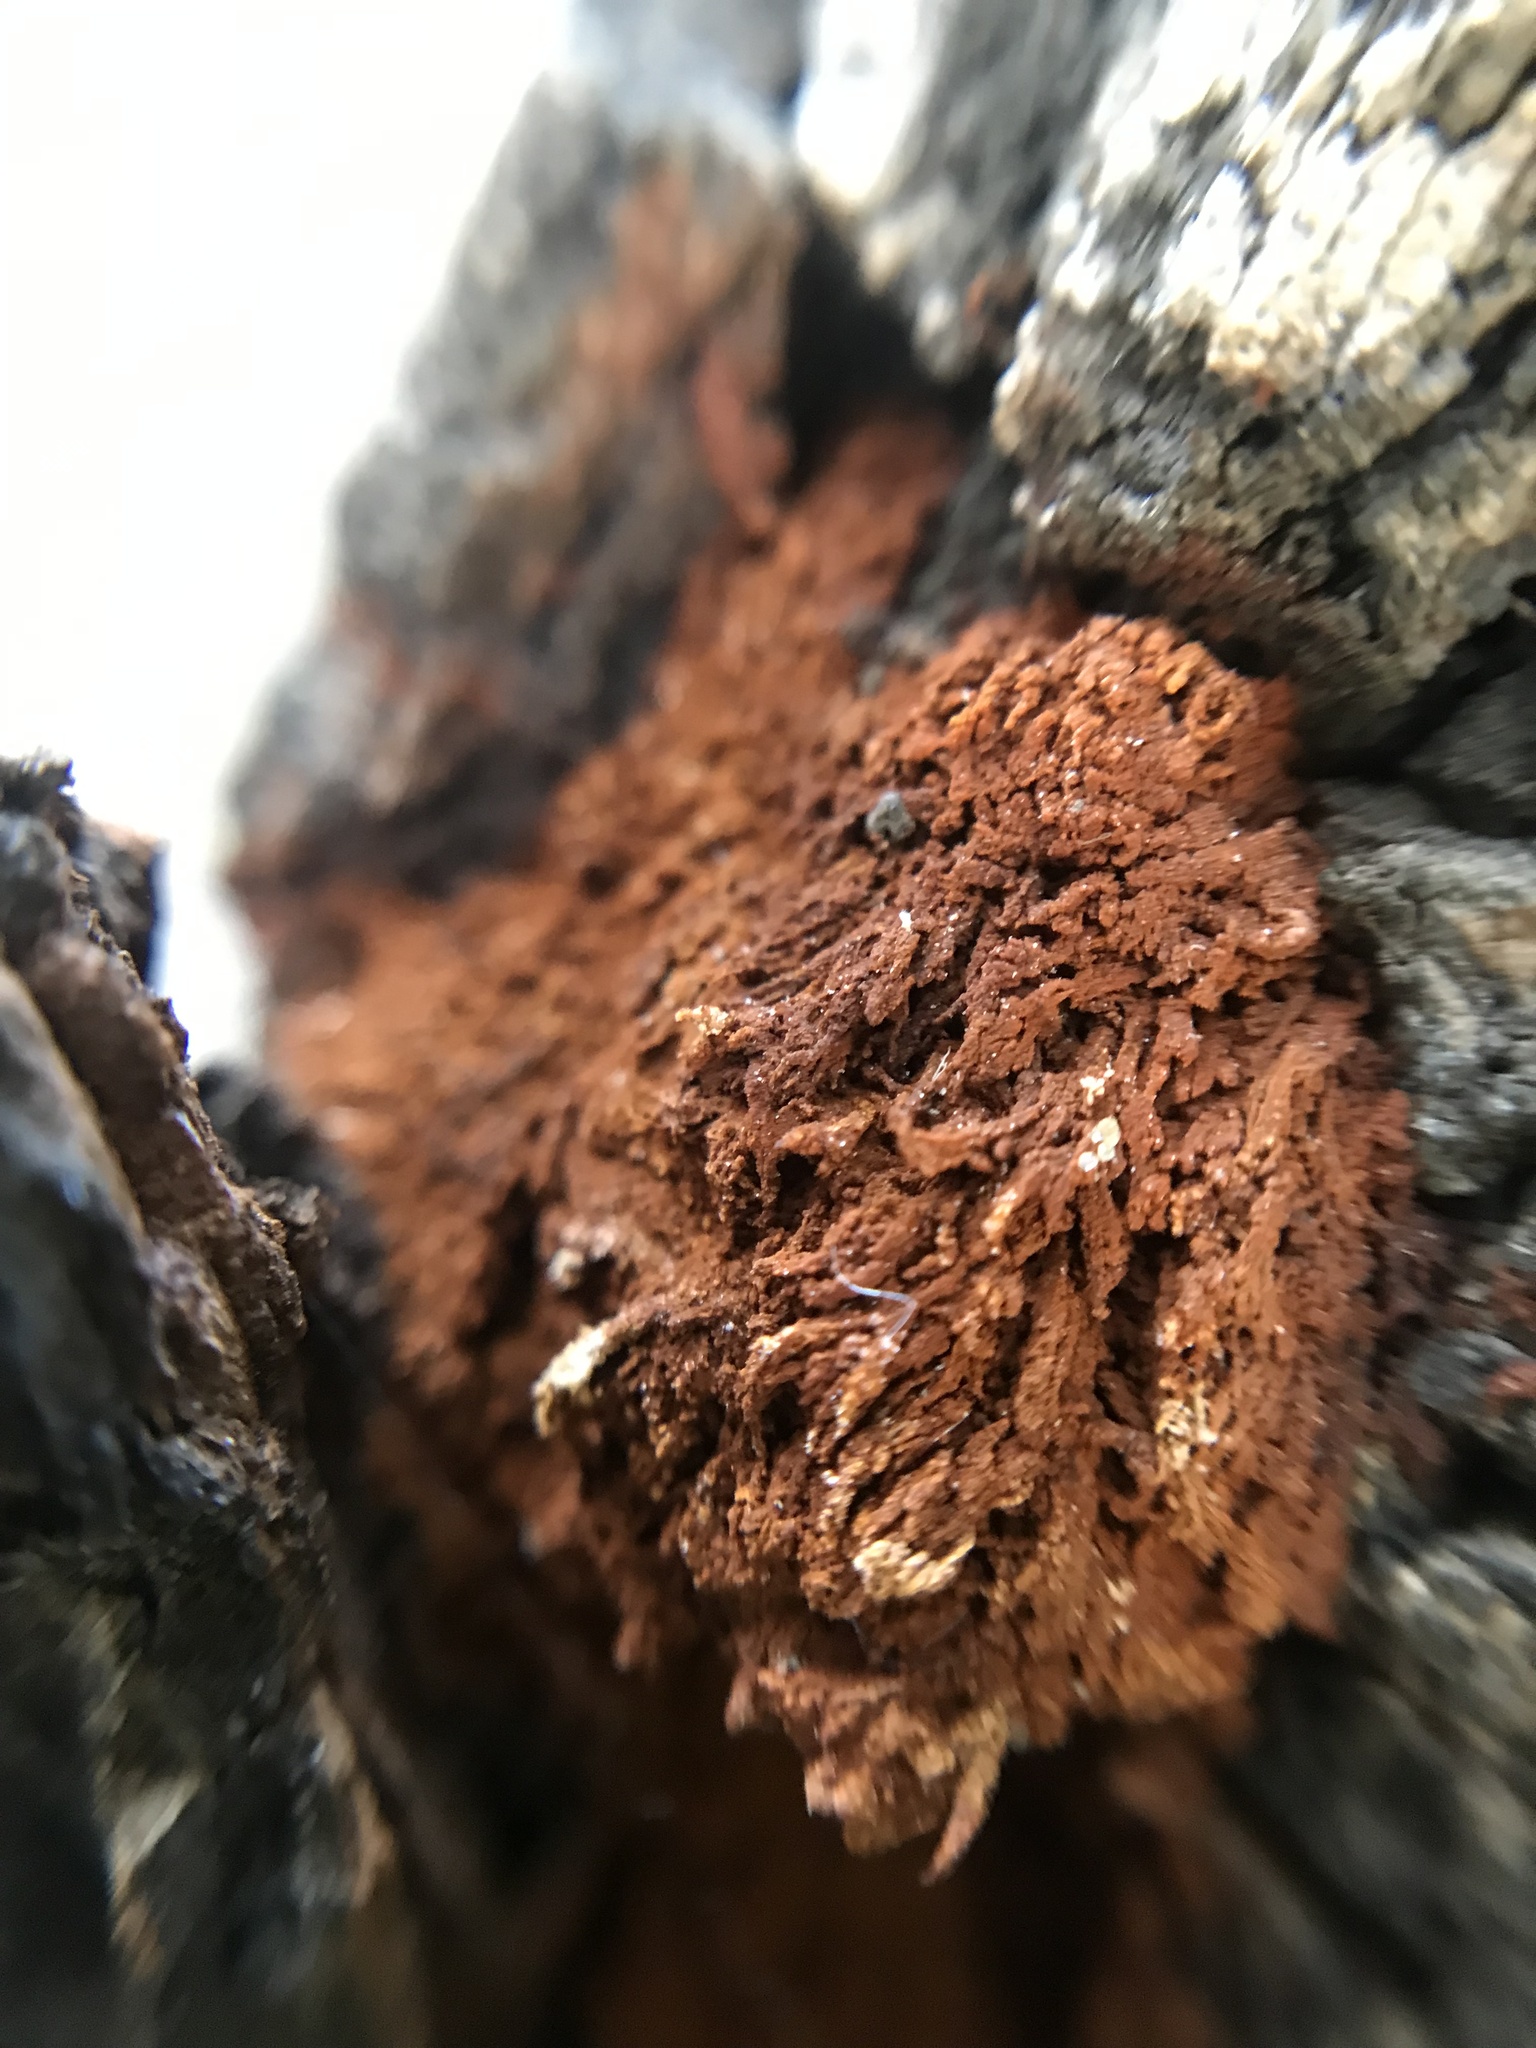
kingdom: Fungi
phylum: Basidiomycota
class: Agaricomycetes
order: Hymenochaetales
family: Hymenochaetaceae
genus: Inonotus
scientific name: Inonotus rickii
